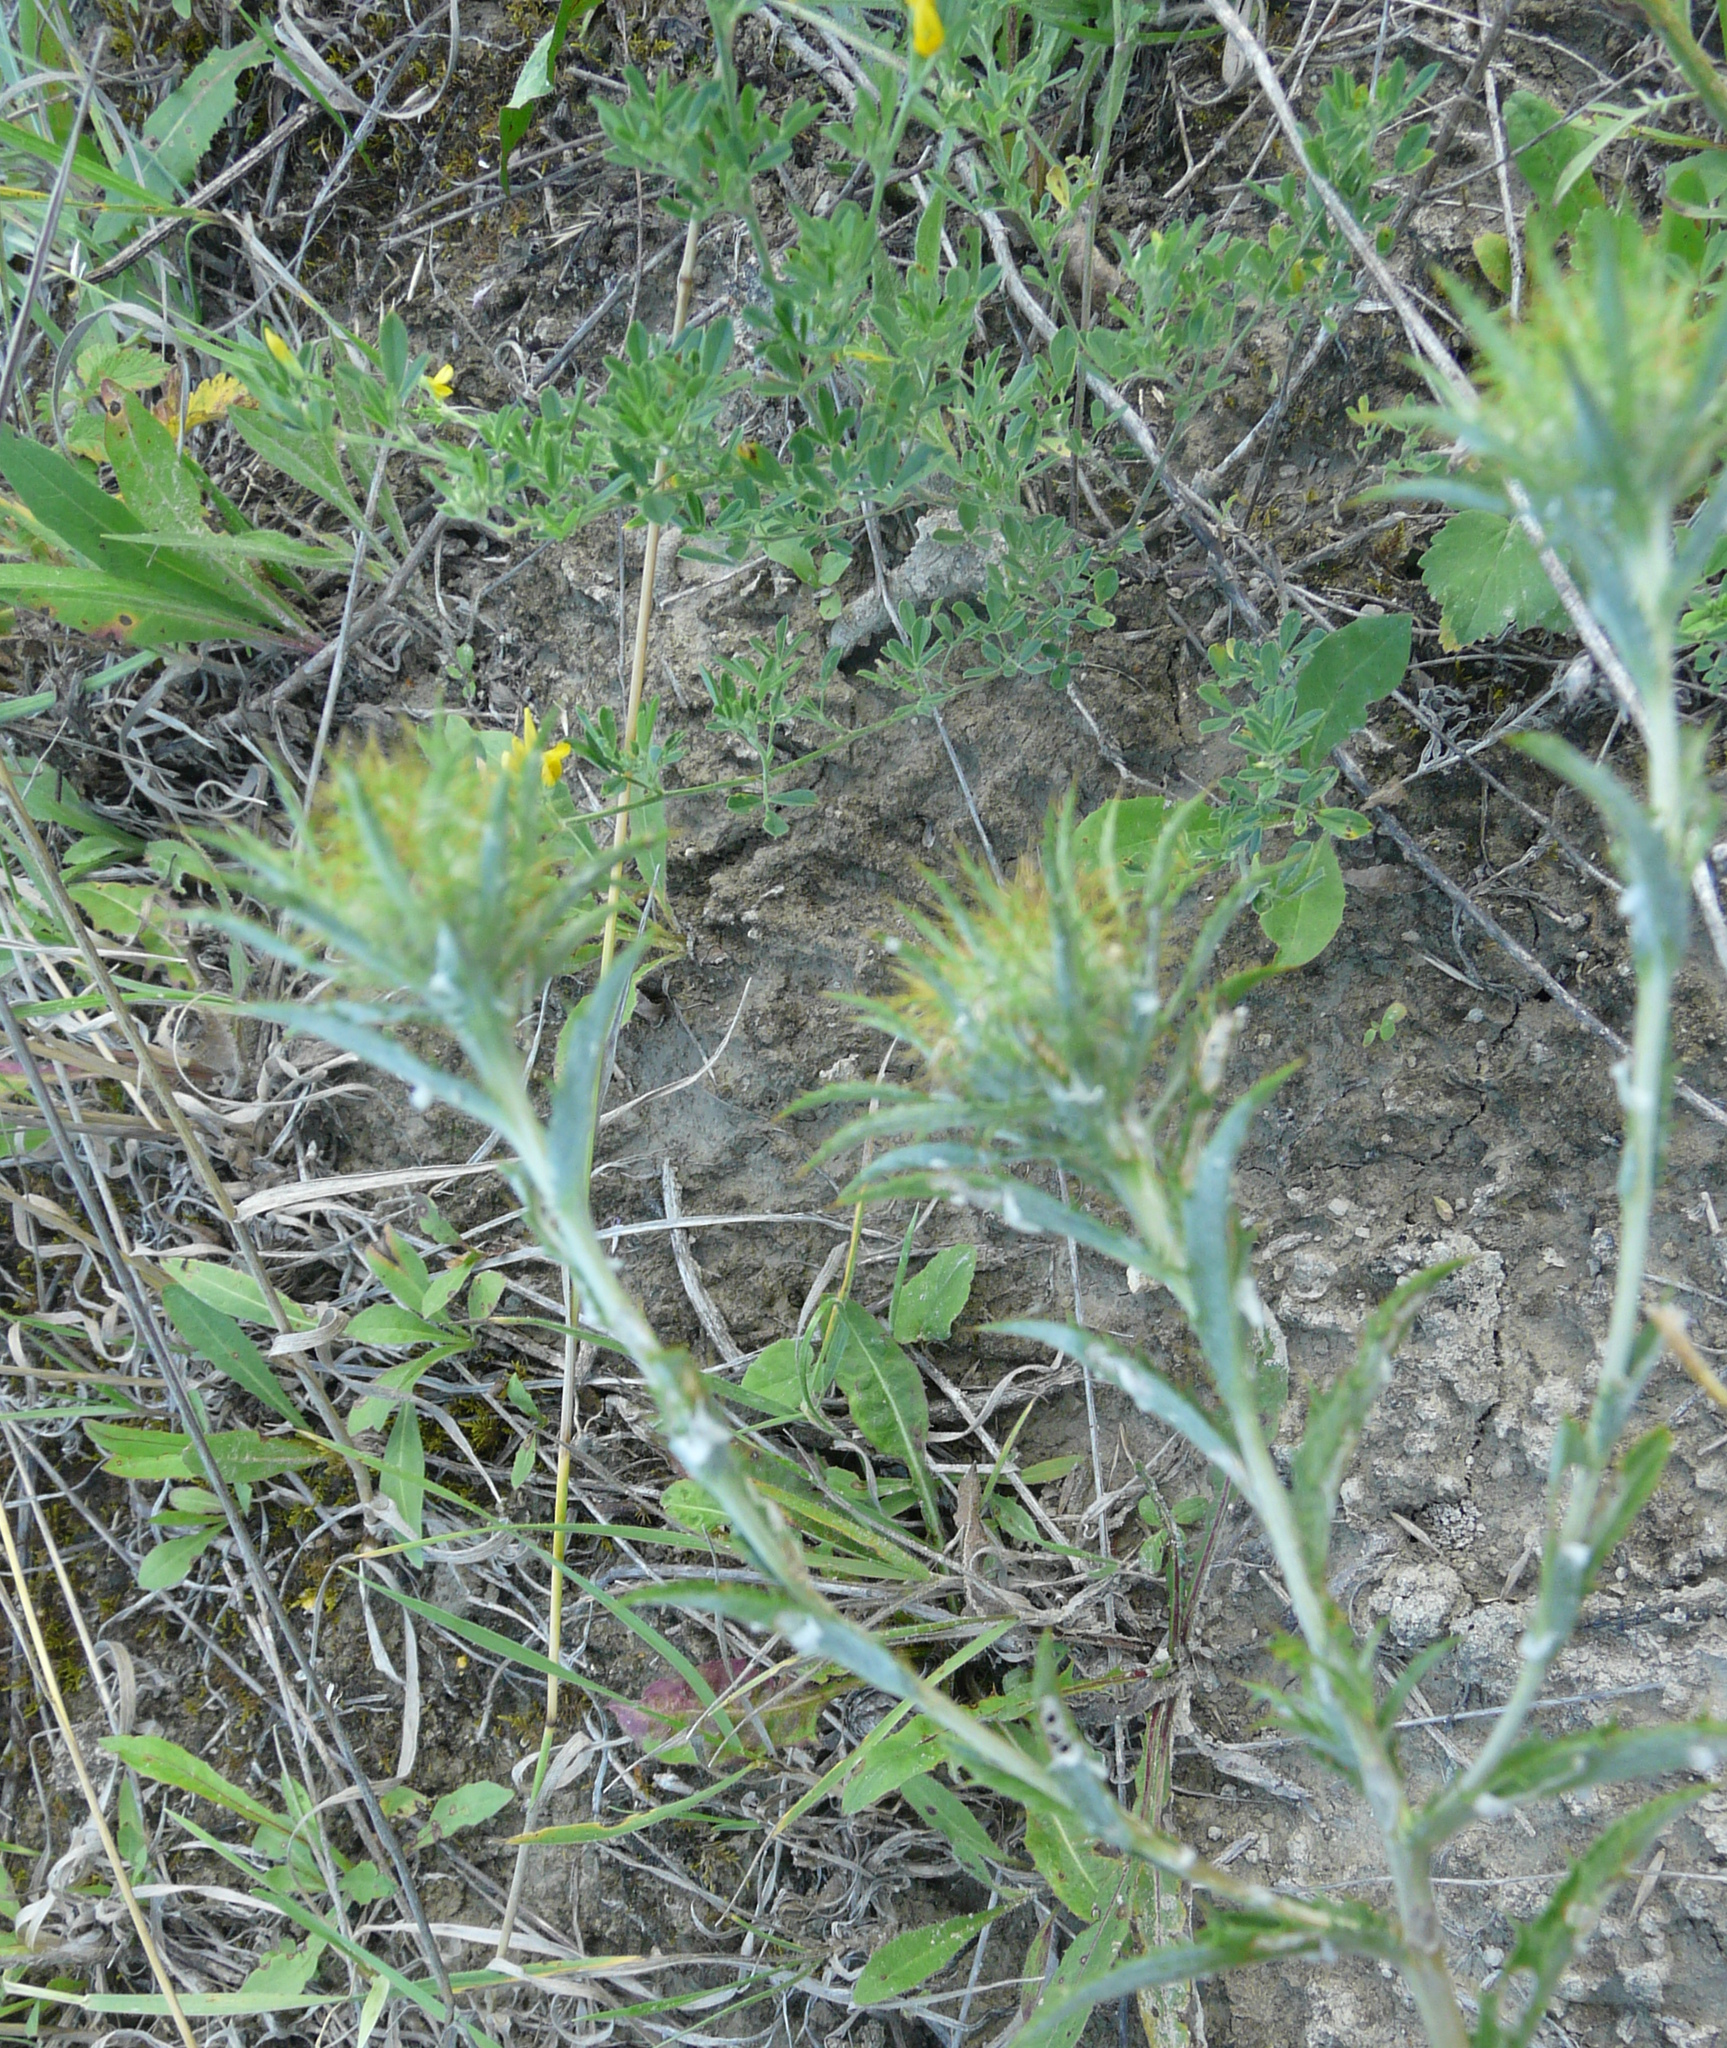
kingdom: Plantae
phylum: Tracheophyta
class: Magnoliopsida
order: Asterales
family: Asteraceae
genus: Carlina
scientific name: Carlina biebersteinii
